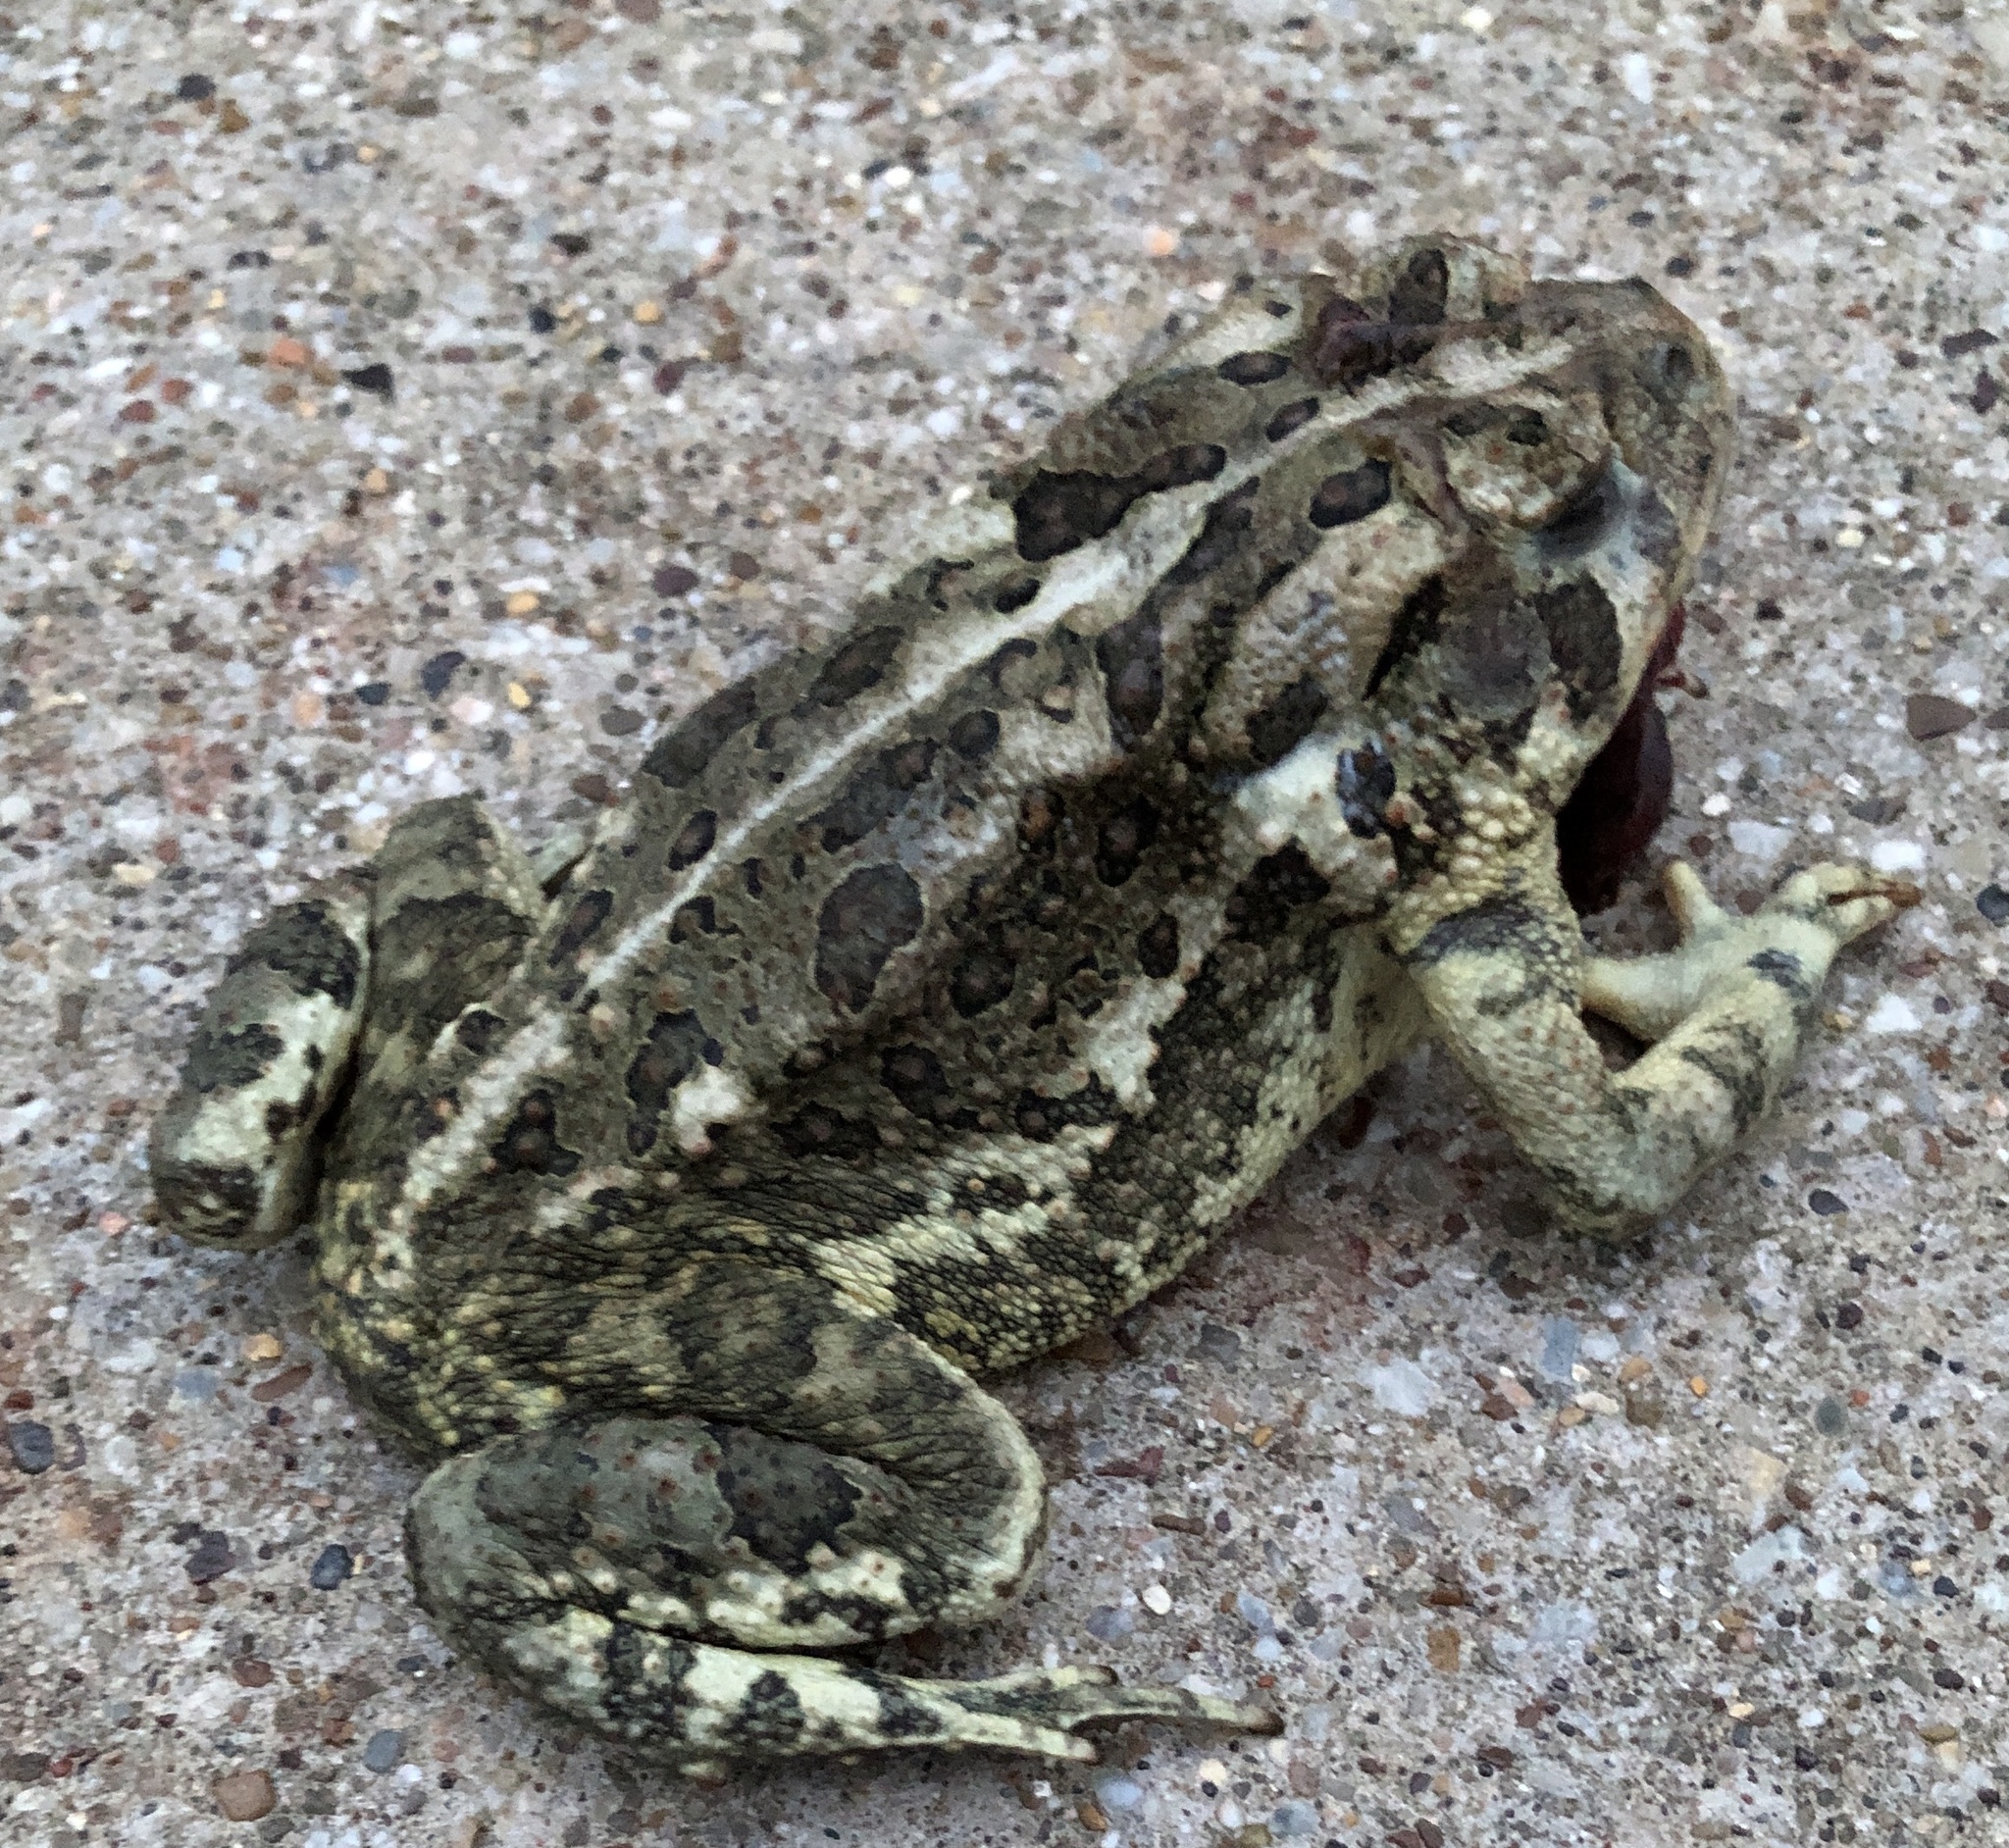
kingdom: Animalia
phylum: Chordata
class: Amphibia
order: Anura
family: Bufonidae
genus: Anaxyrus
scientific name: Anaxyrus
